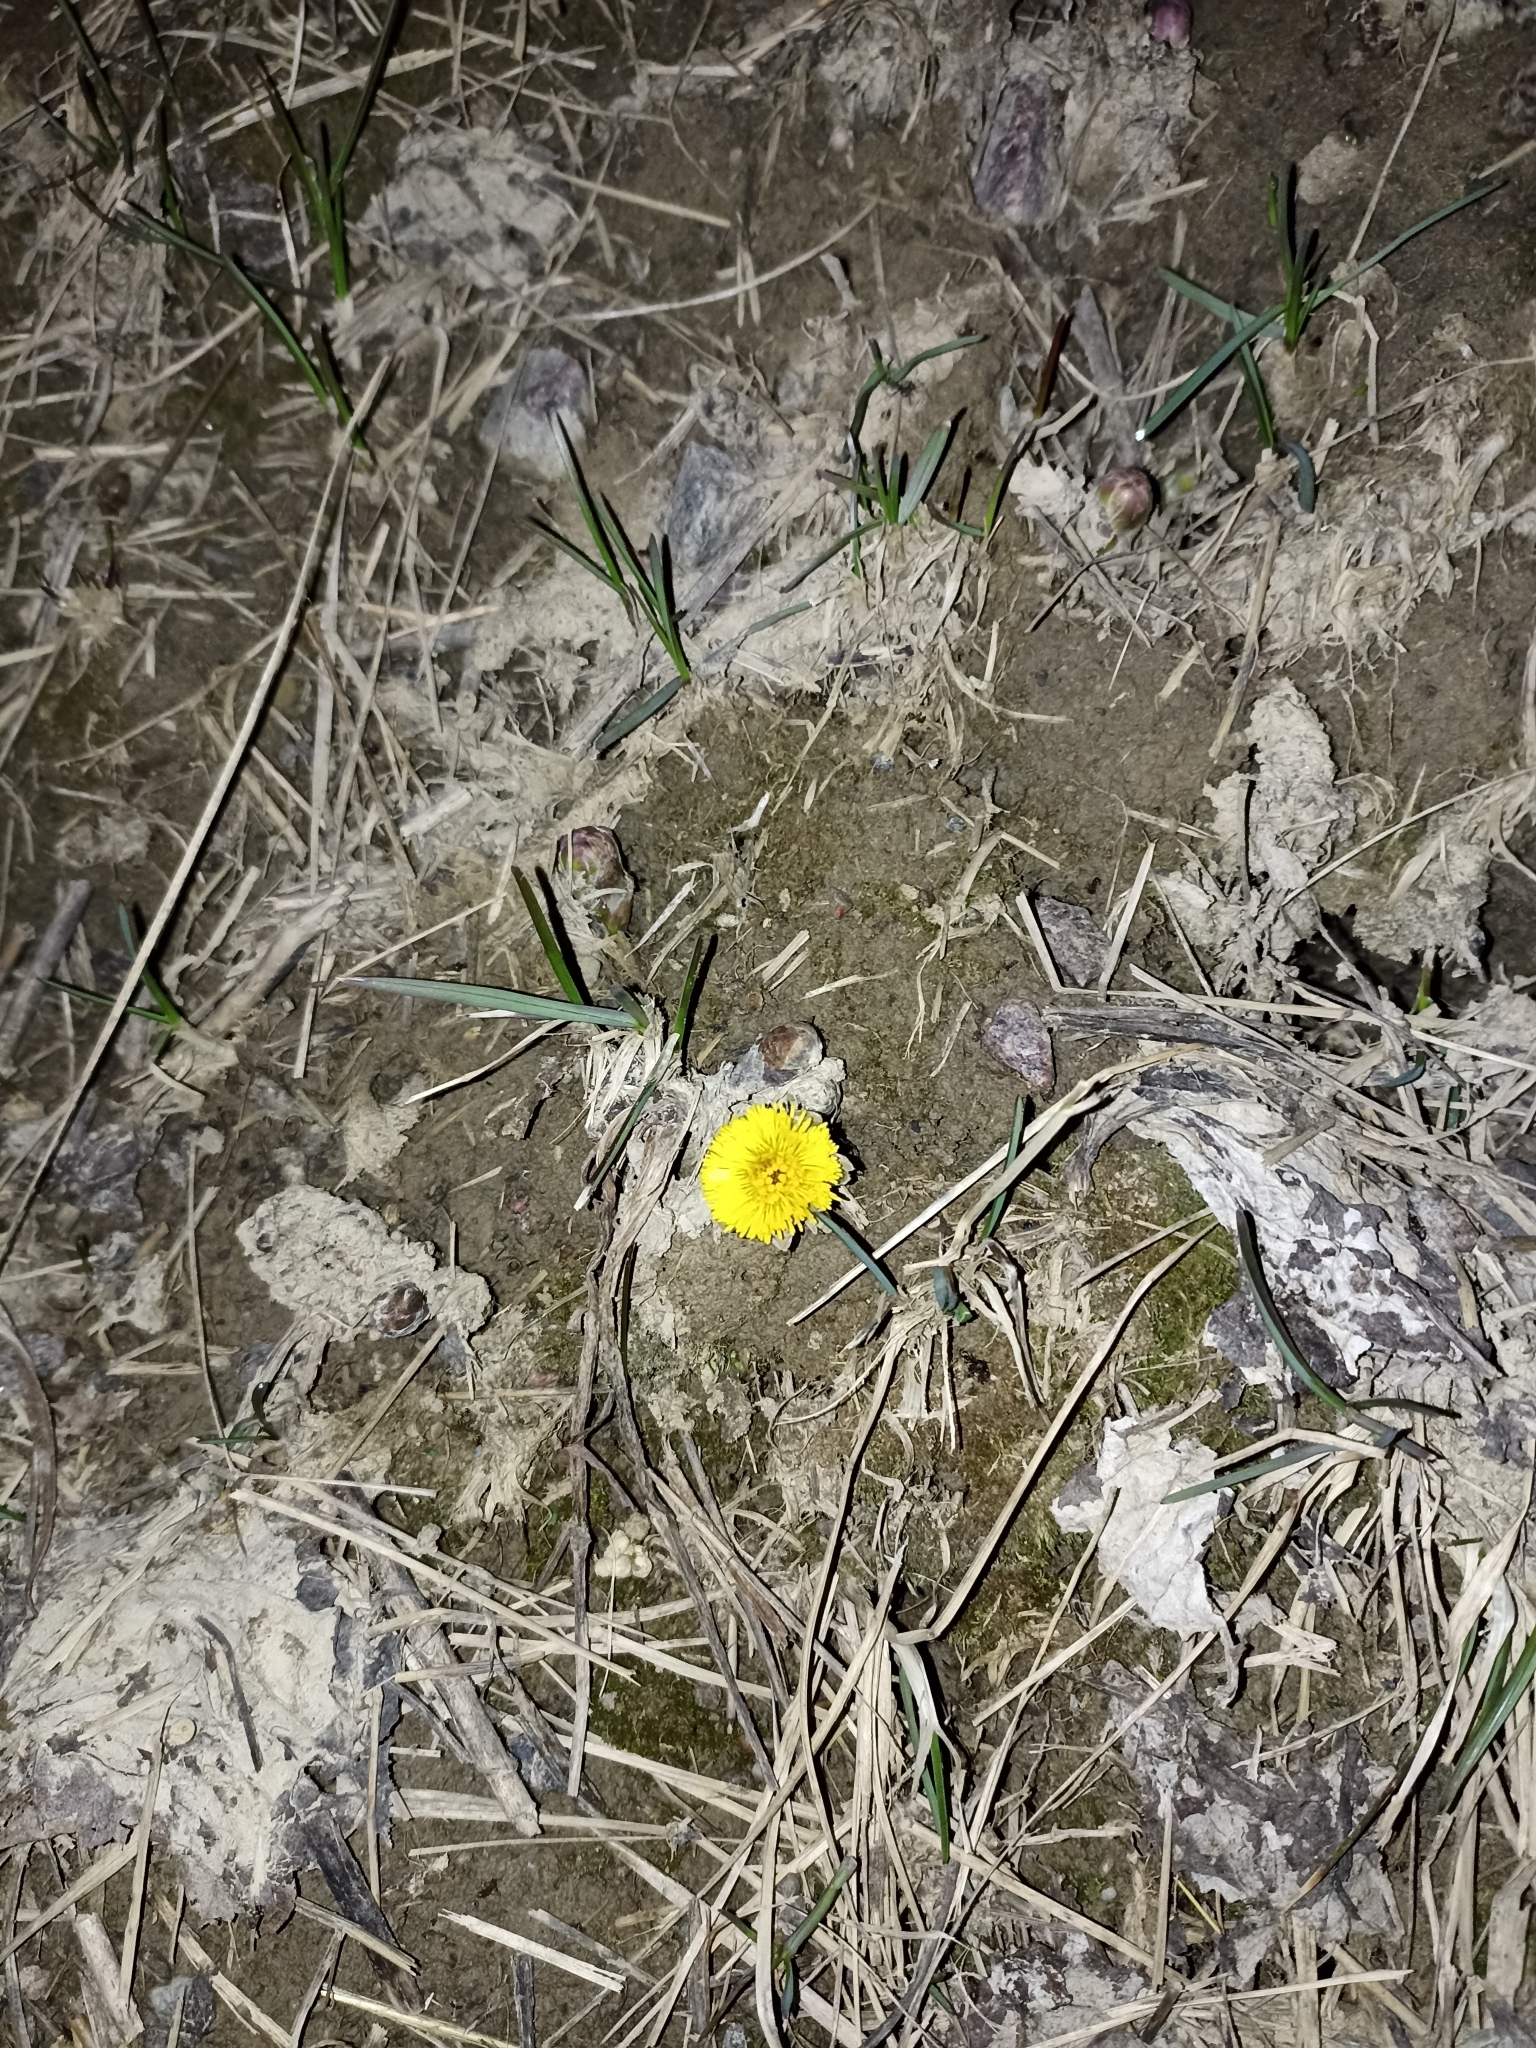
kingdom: Plantae
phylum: Tracheophyta
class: Magnoliopsida
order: Asterales
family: Asteraceae
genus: Tussilago
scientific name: Tussilago farfara
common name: Coltsfoot
